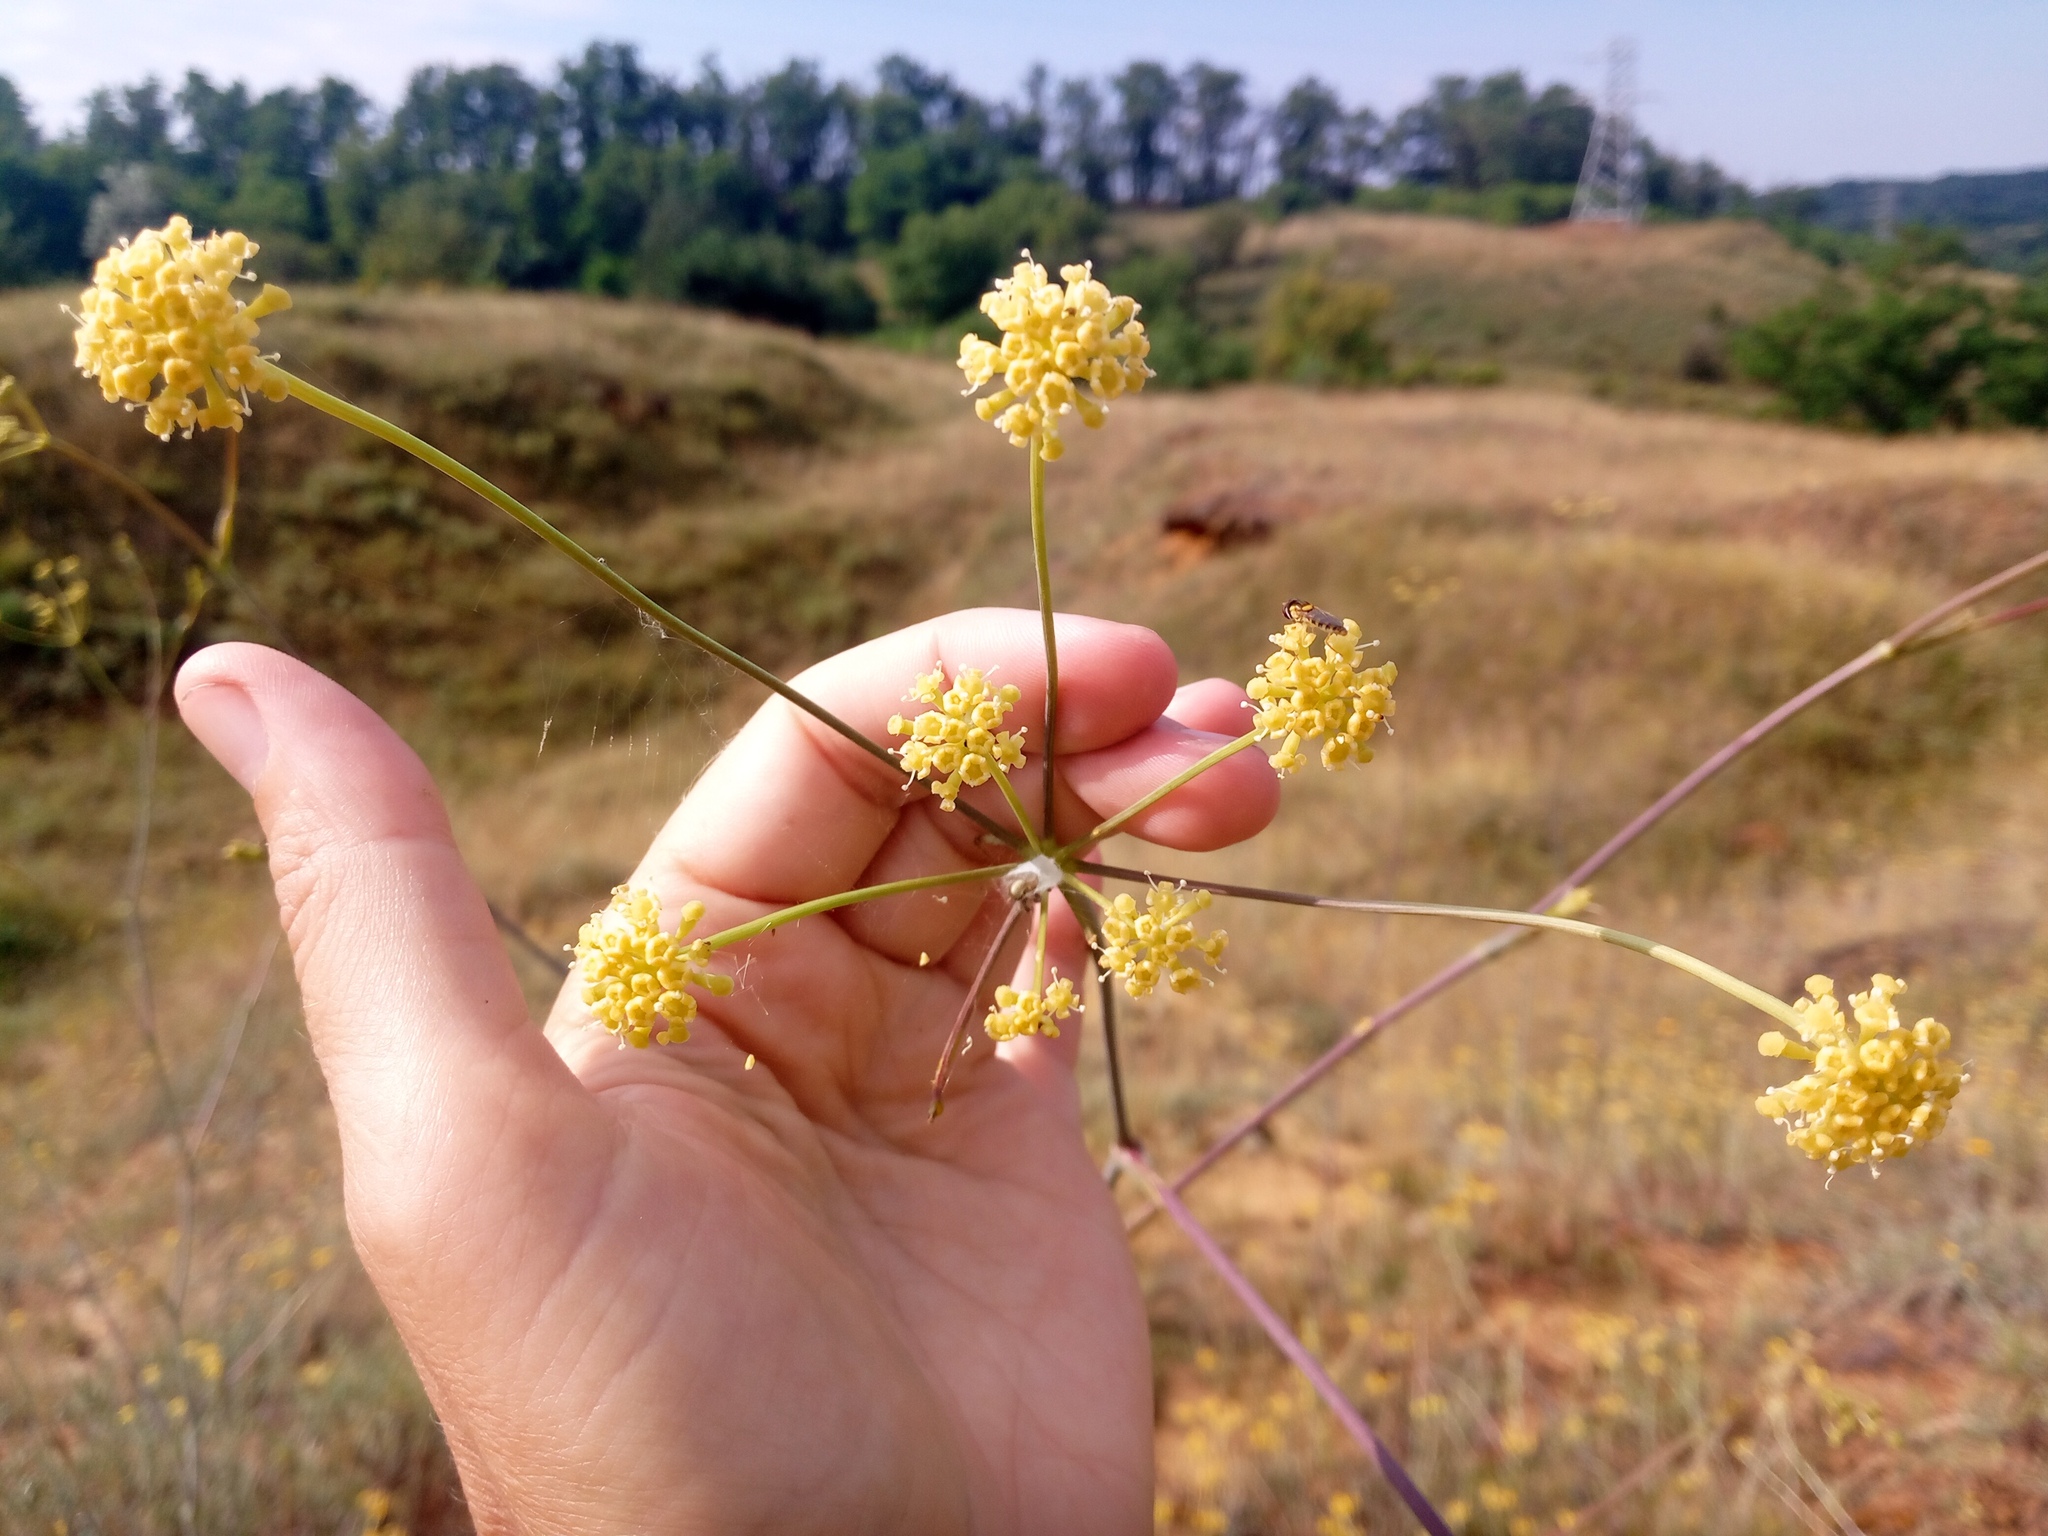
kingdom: Plantae
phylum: Tracheophyta
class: Magnoliopsida
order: Apiales
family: Apiaceae
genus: Taeniopetalum
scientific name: Taeniopetalum arenarium
